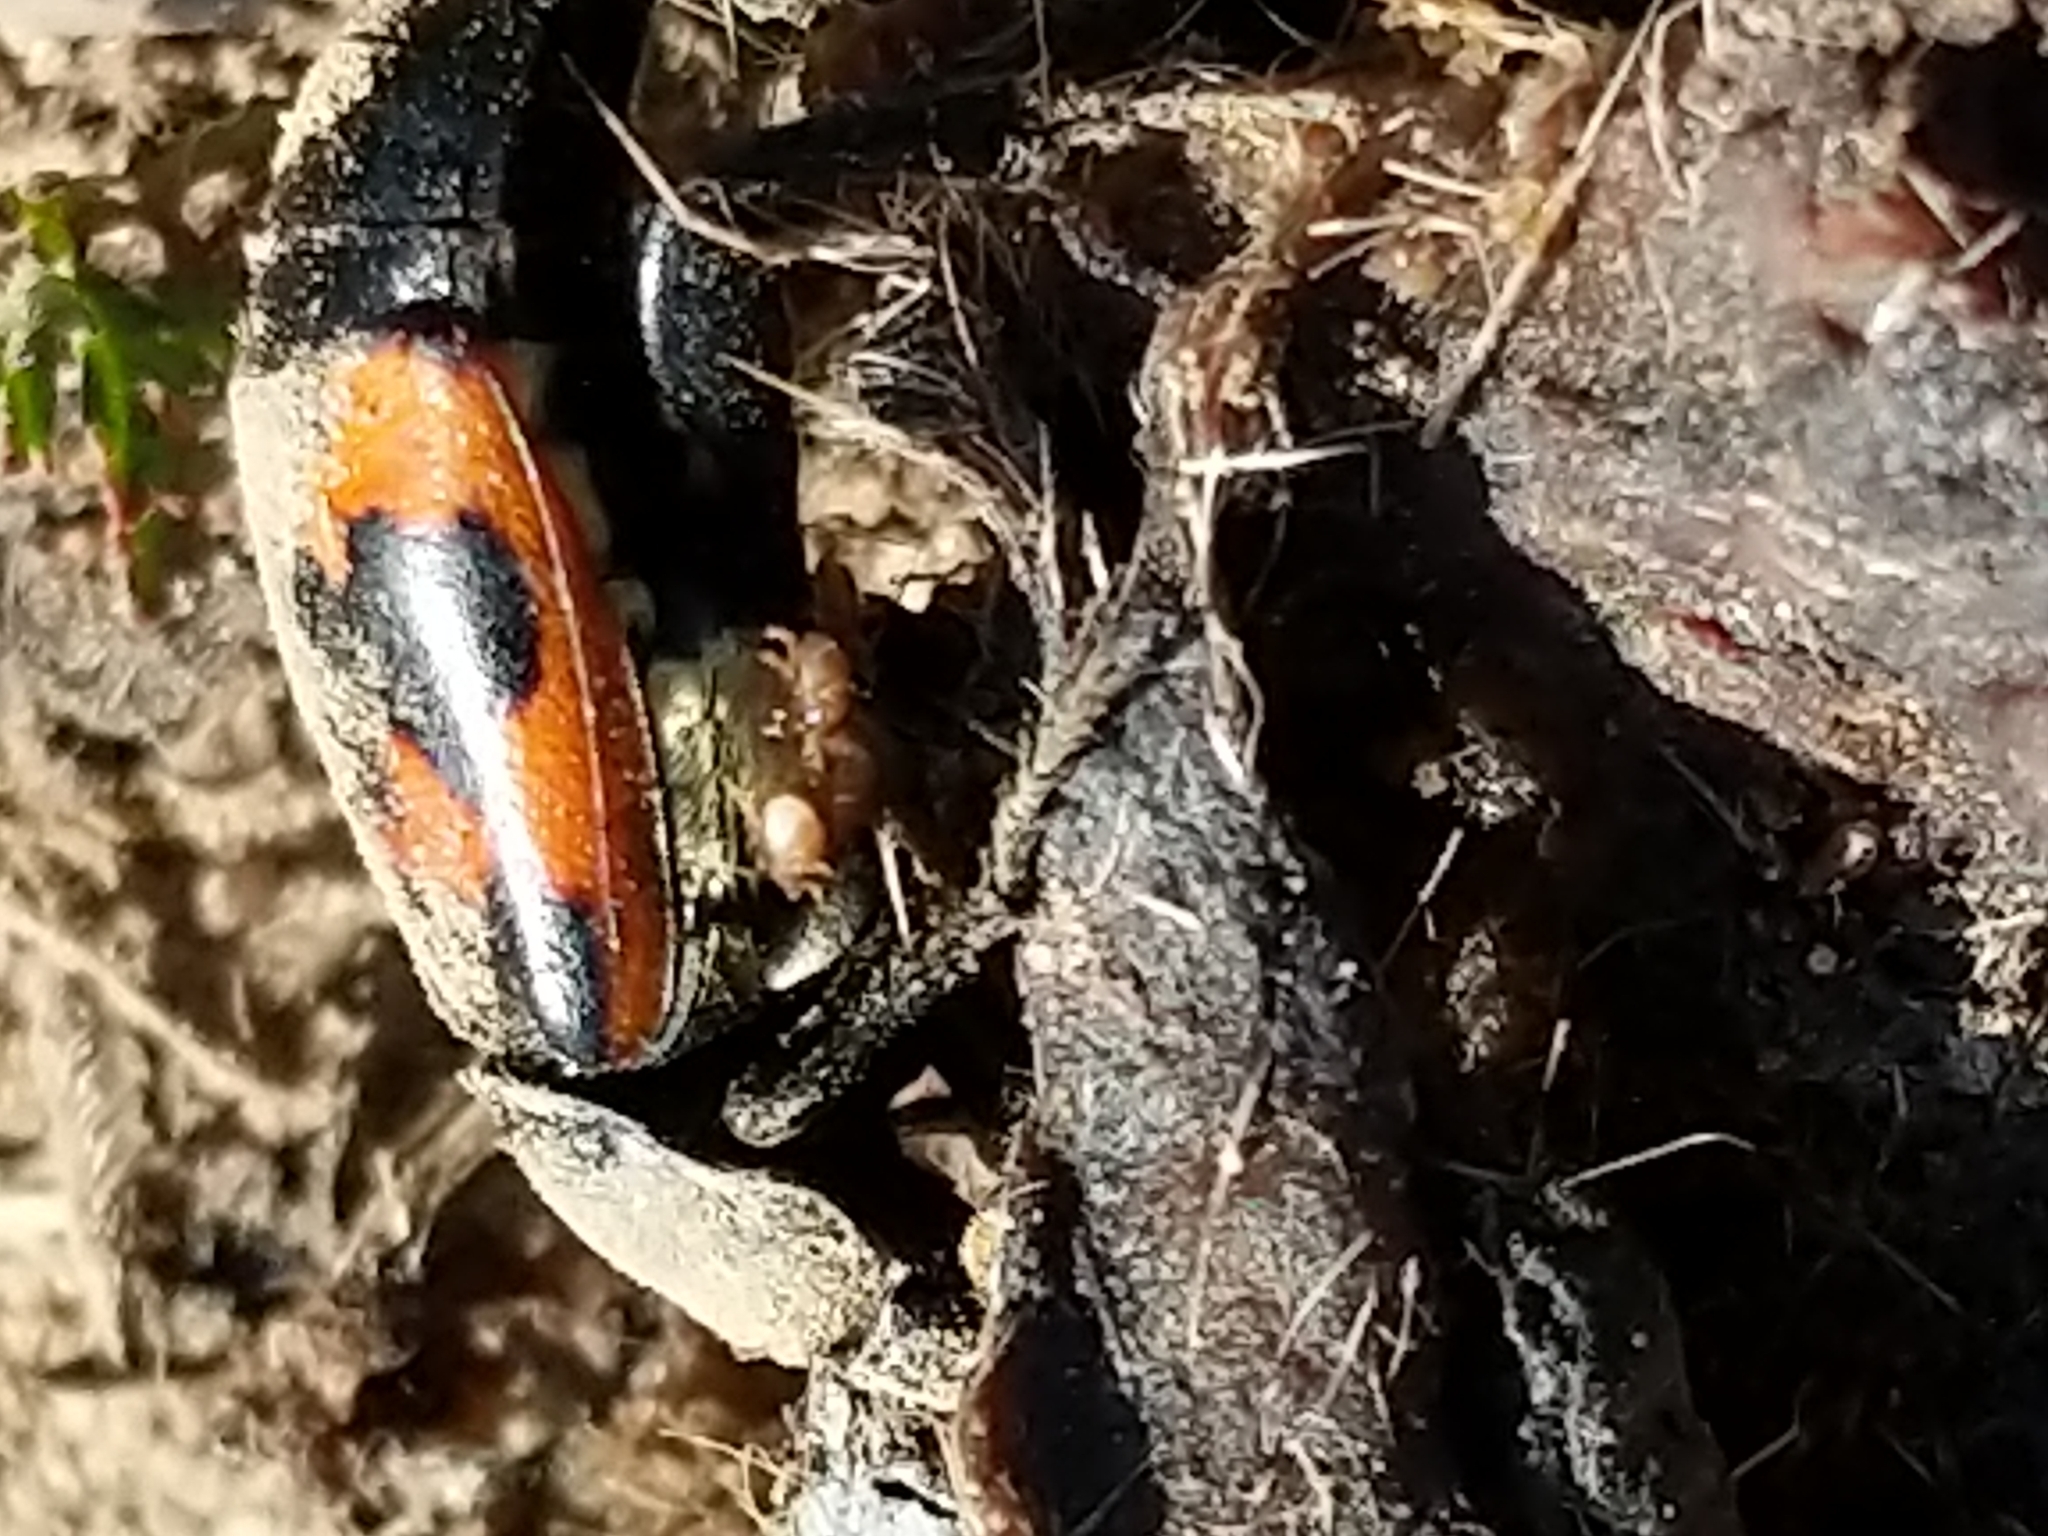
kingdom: Animalia
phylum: Arthropoda
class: Insecta
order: Coleoptera
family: Staphylinidae
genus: Nicrophorus
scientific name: Nicrophorus marginatus
